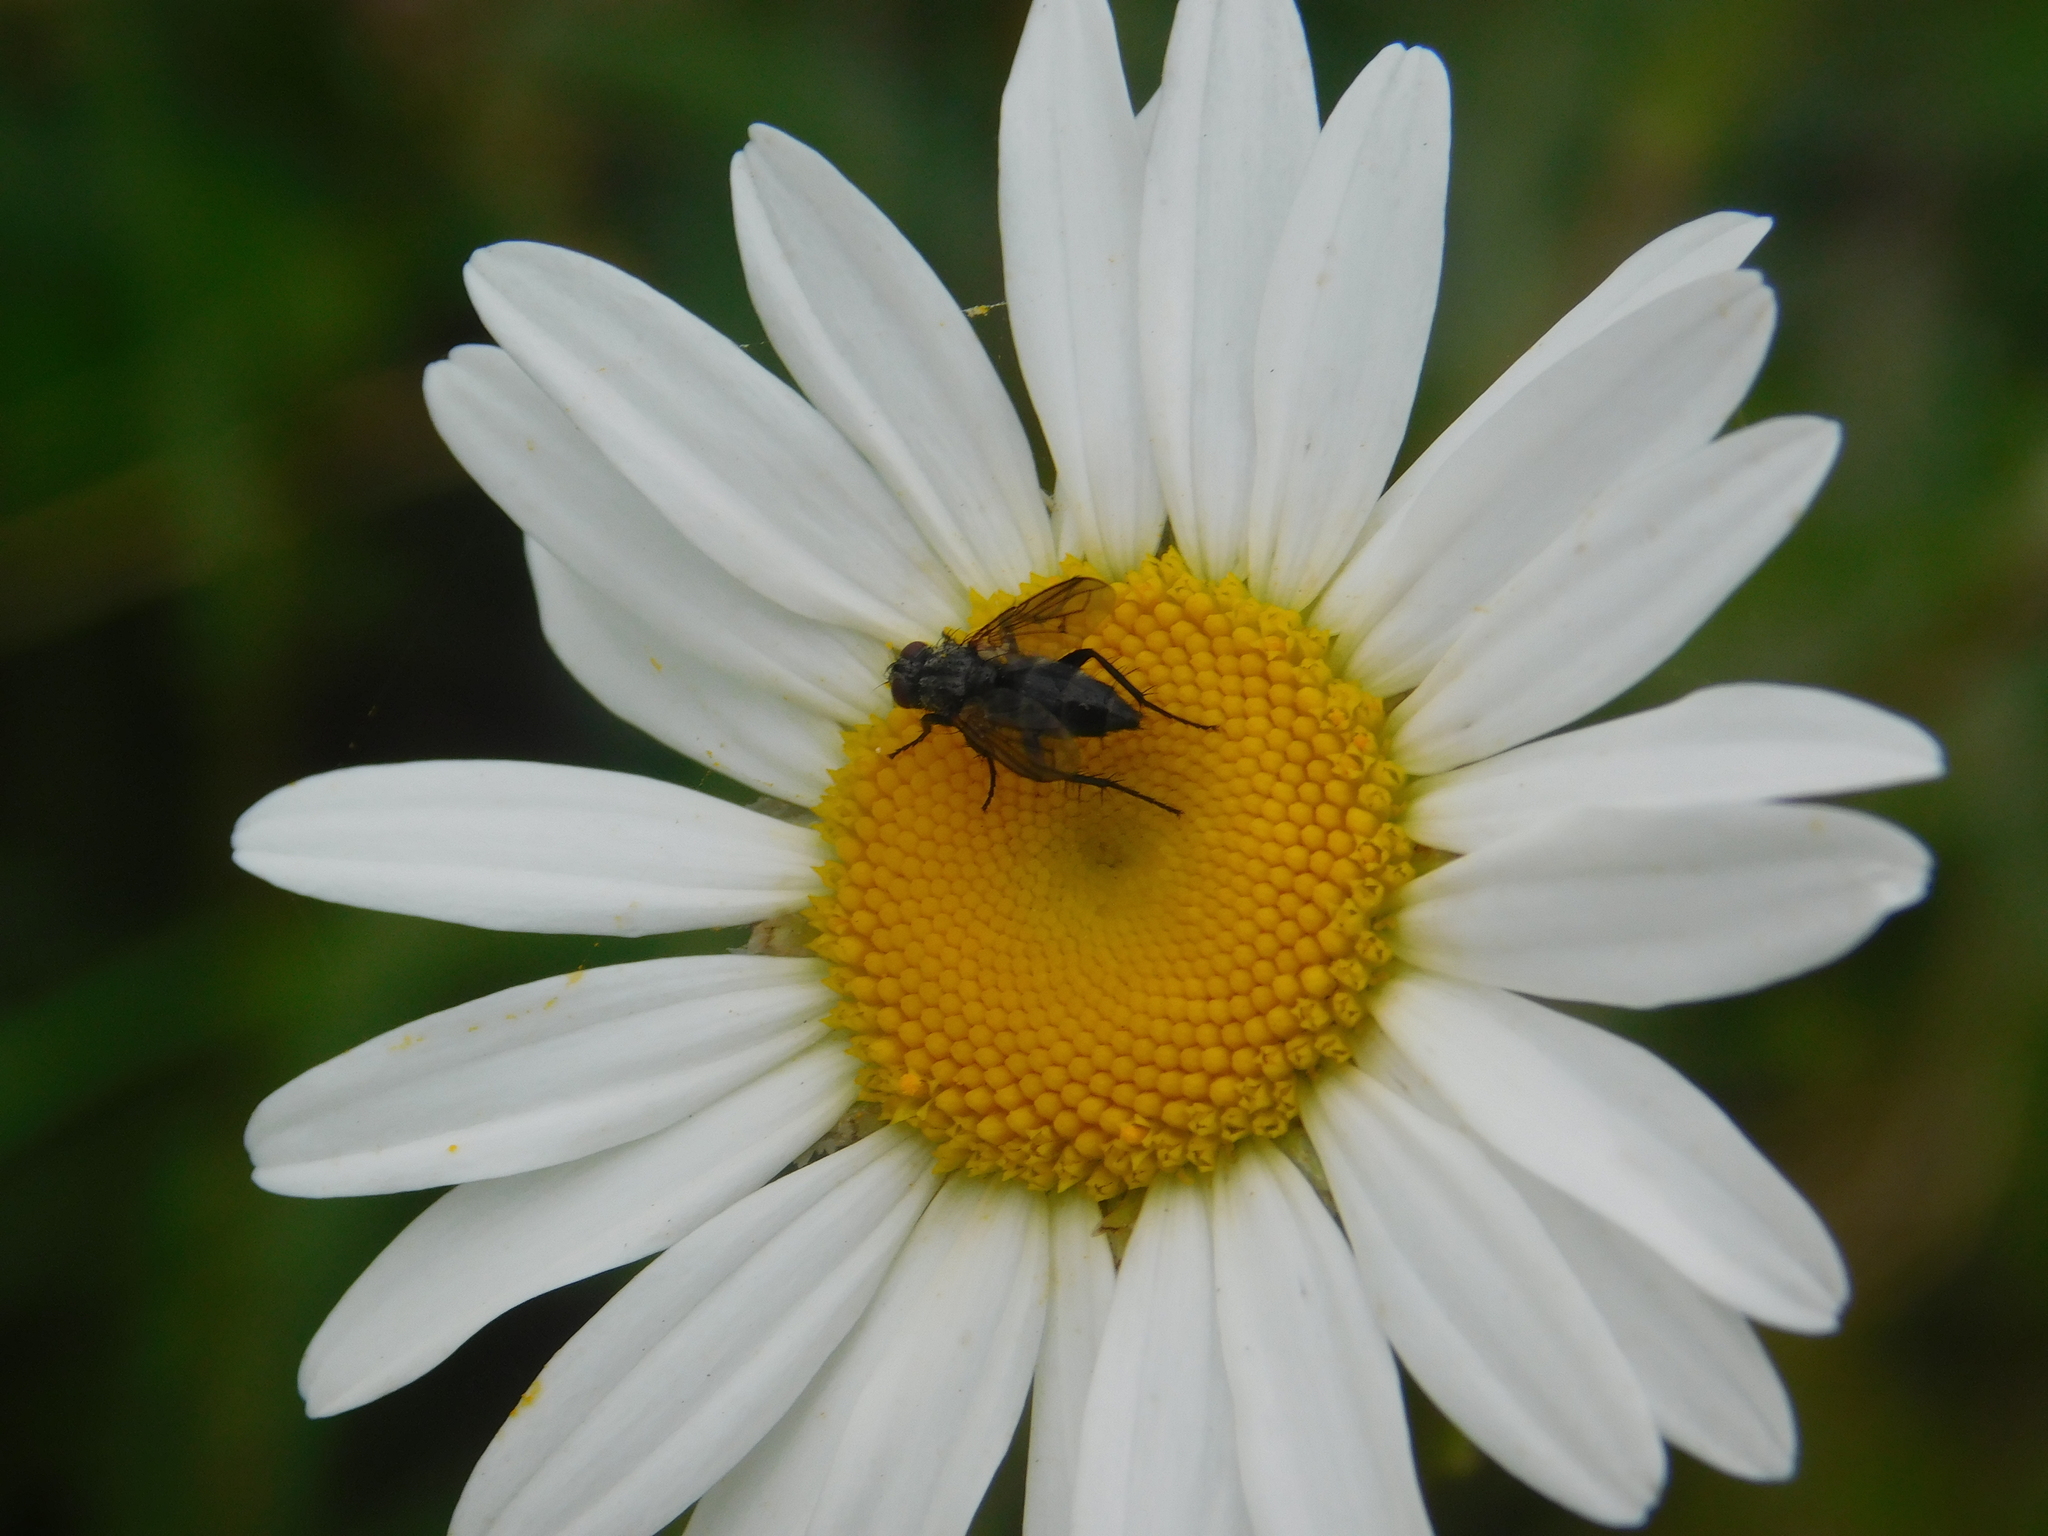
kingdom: Animalia
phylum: Arthropoda
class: Insecta
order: Diptera
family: Calliphoridae
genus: Stevenia
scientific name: Stevenia deceptoria
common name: Grizzled woodlouse-fly
